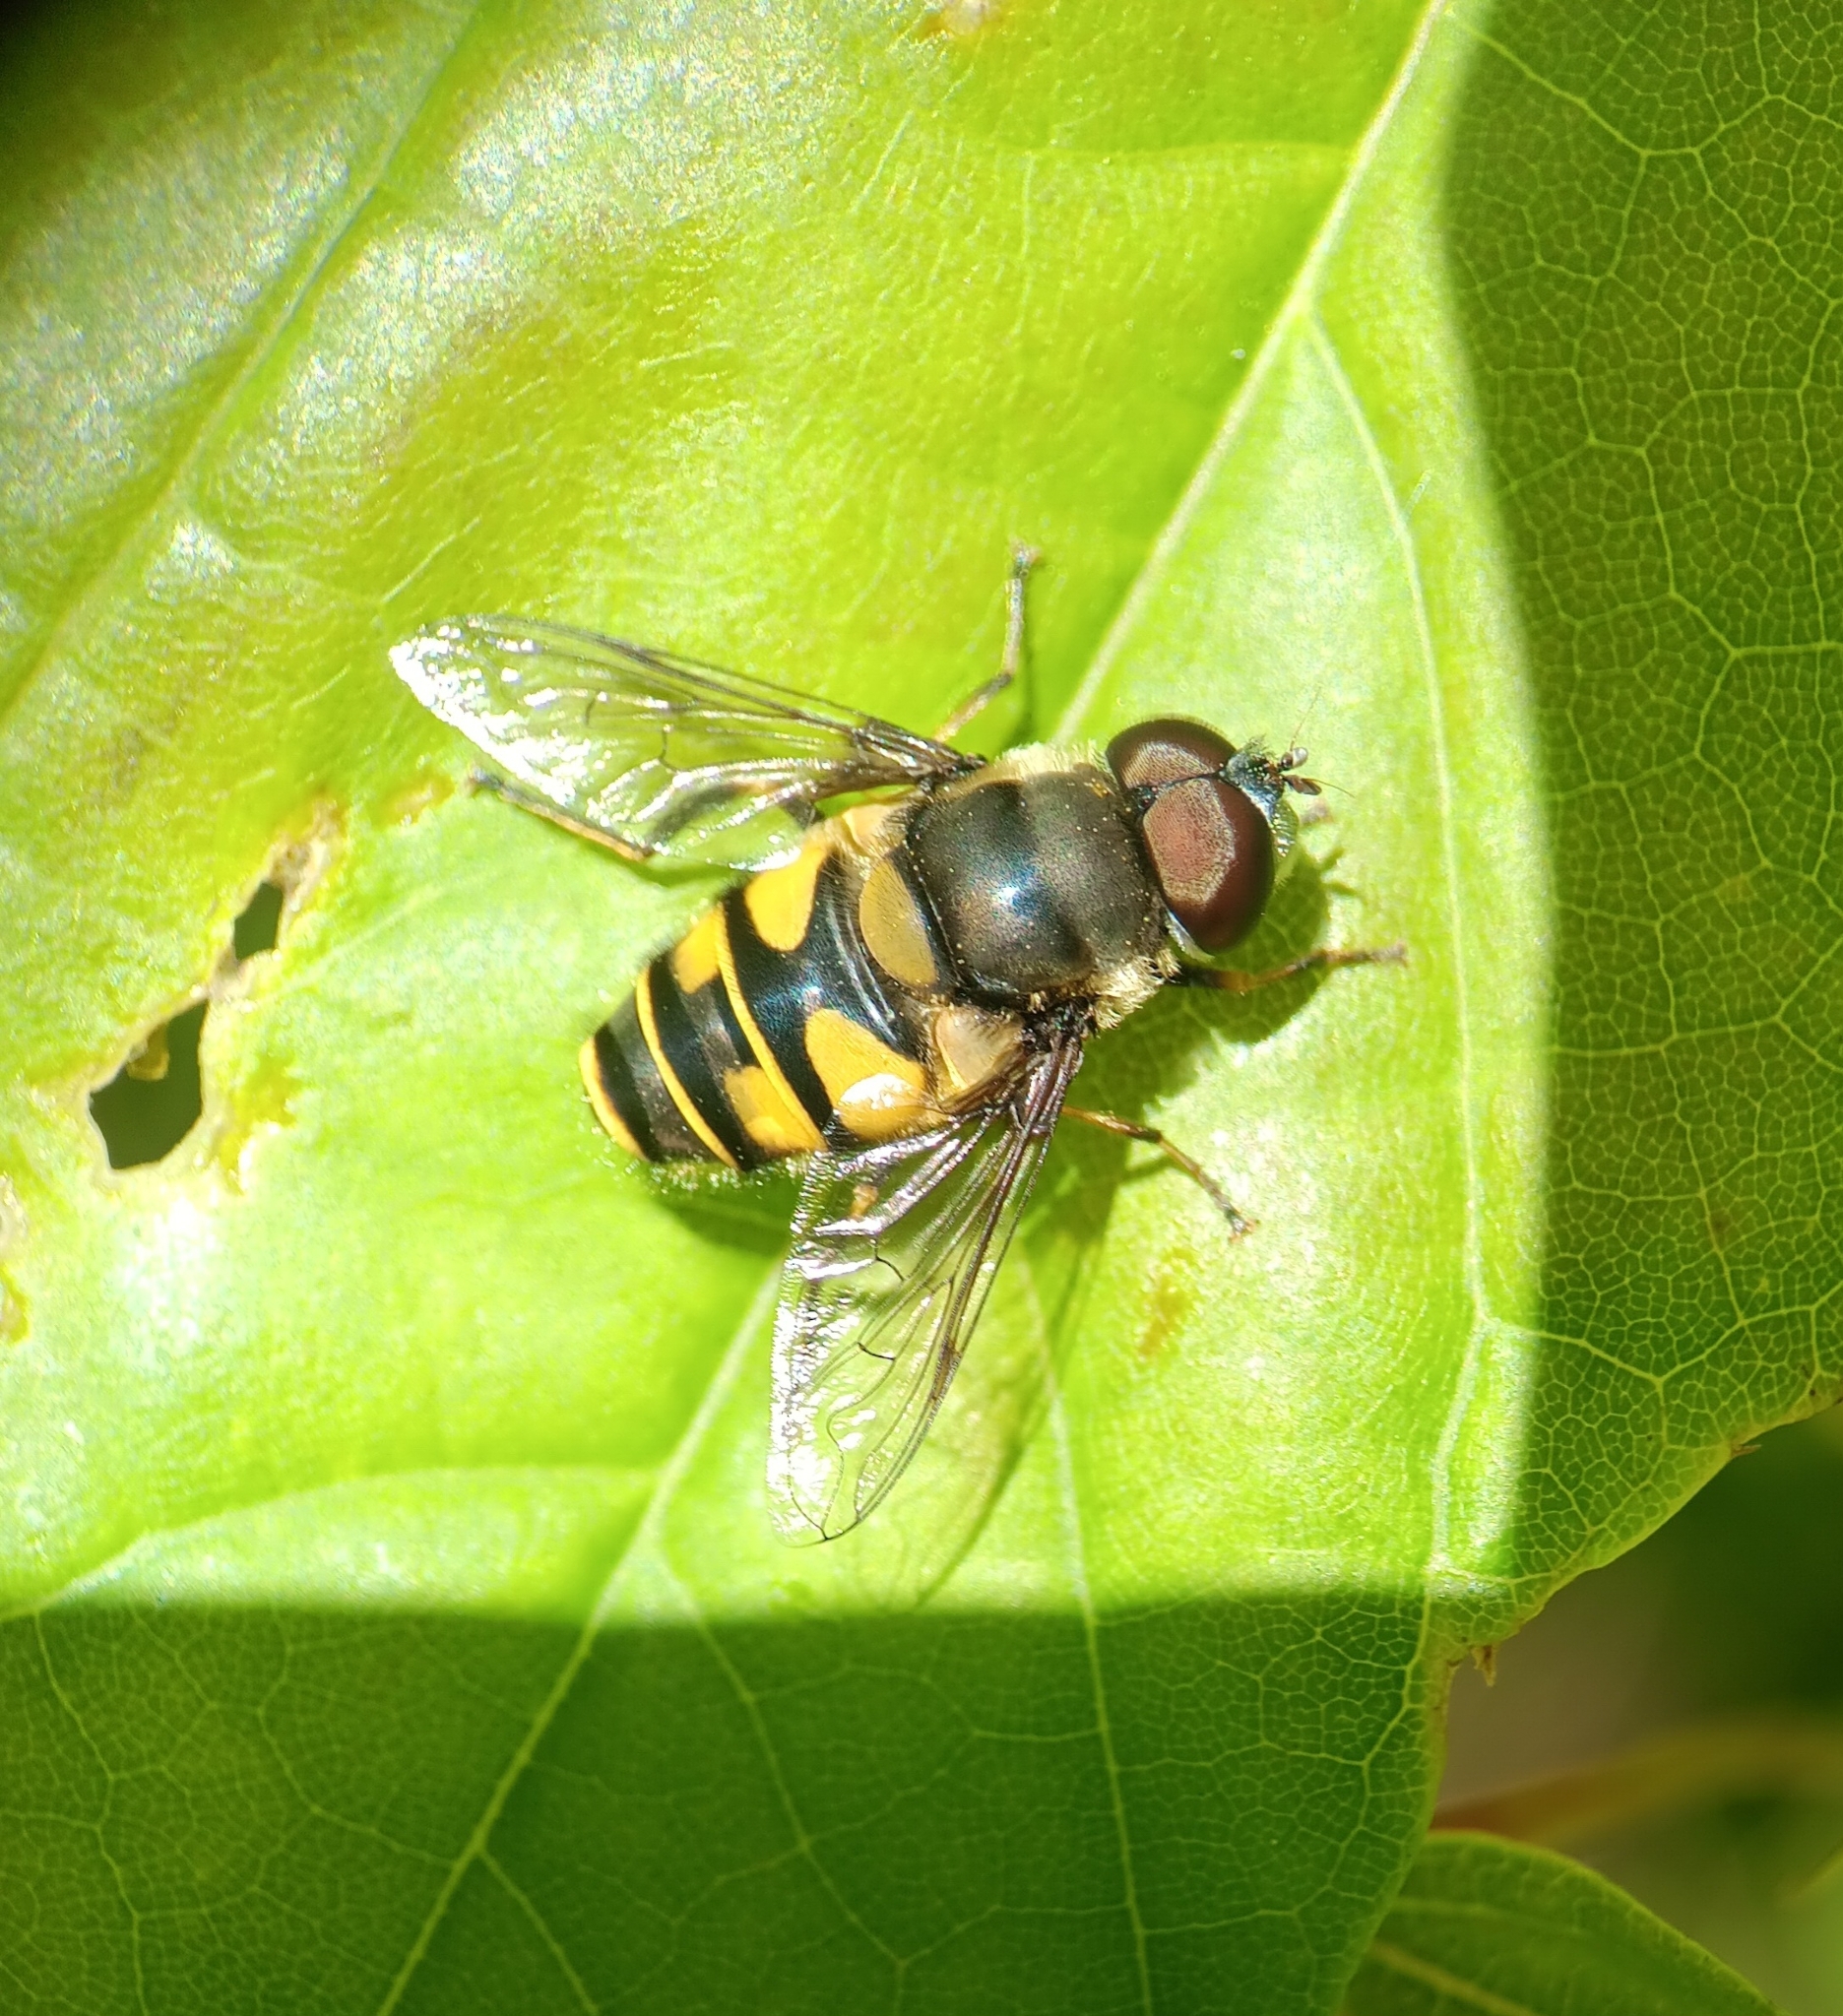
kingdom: Animalia
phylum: Arthropoda
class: Insecta
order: Diptera
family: Syrphidae
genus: Eristalis
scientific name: Eristalis transversa
